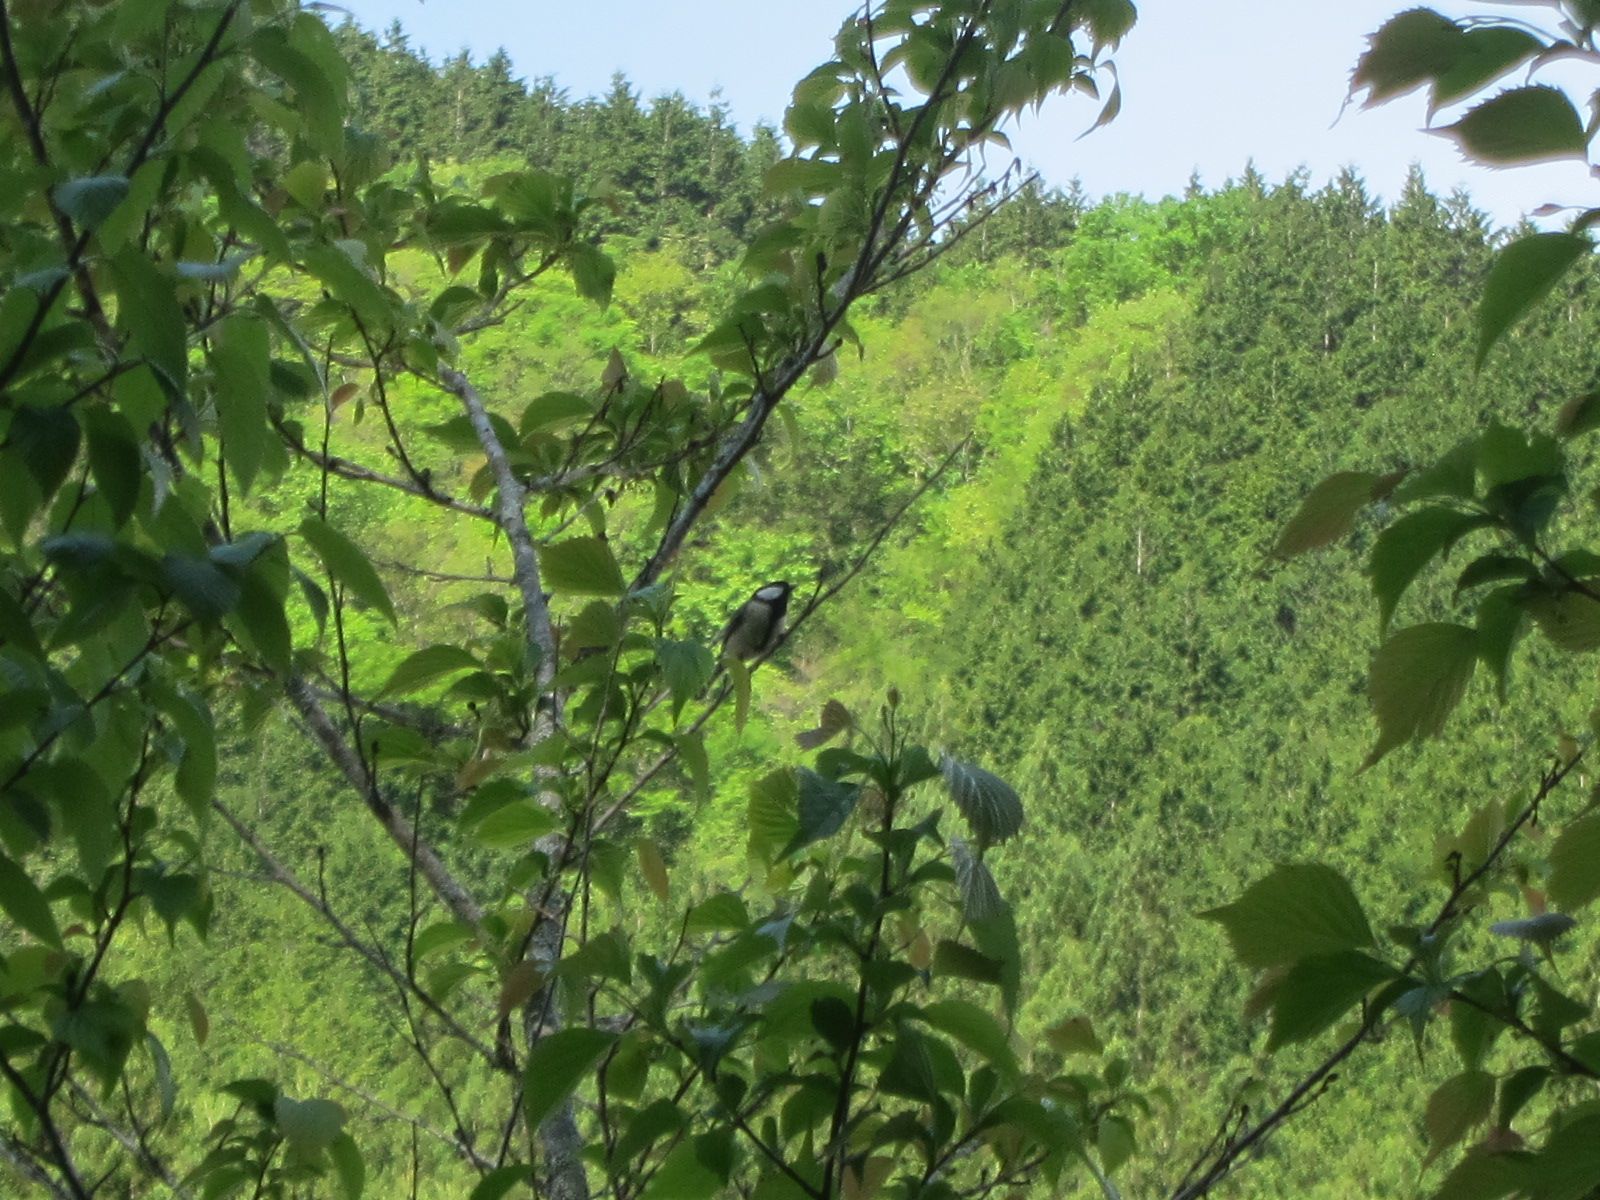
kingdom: Animalia
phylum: Chordata
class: Aves
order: Passeriformes
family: Paridae
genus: Parus
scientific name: Parus minor
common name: Japanese tit
